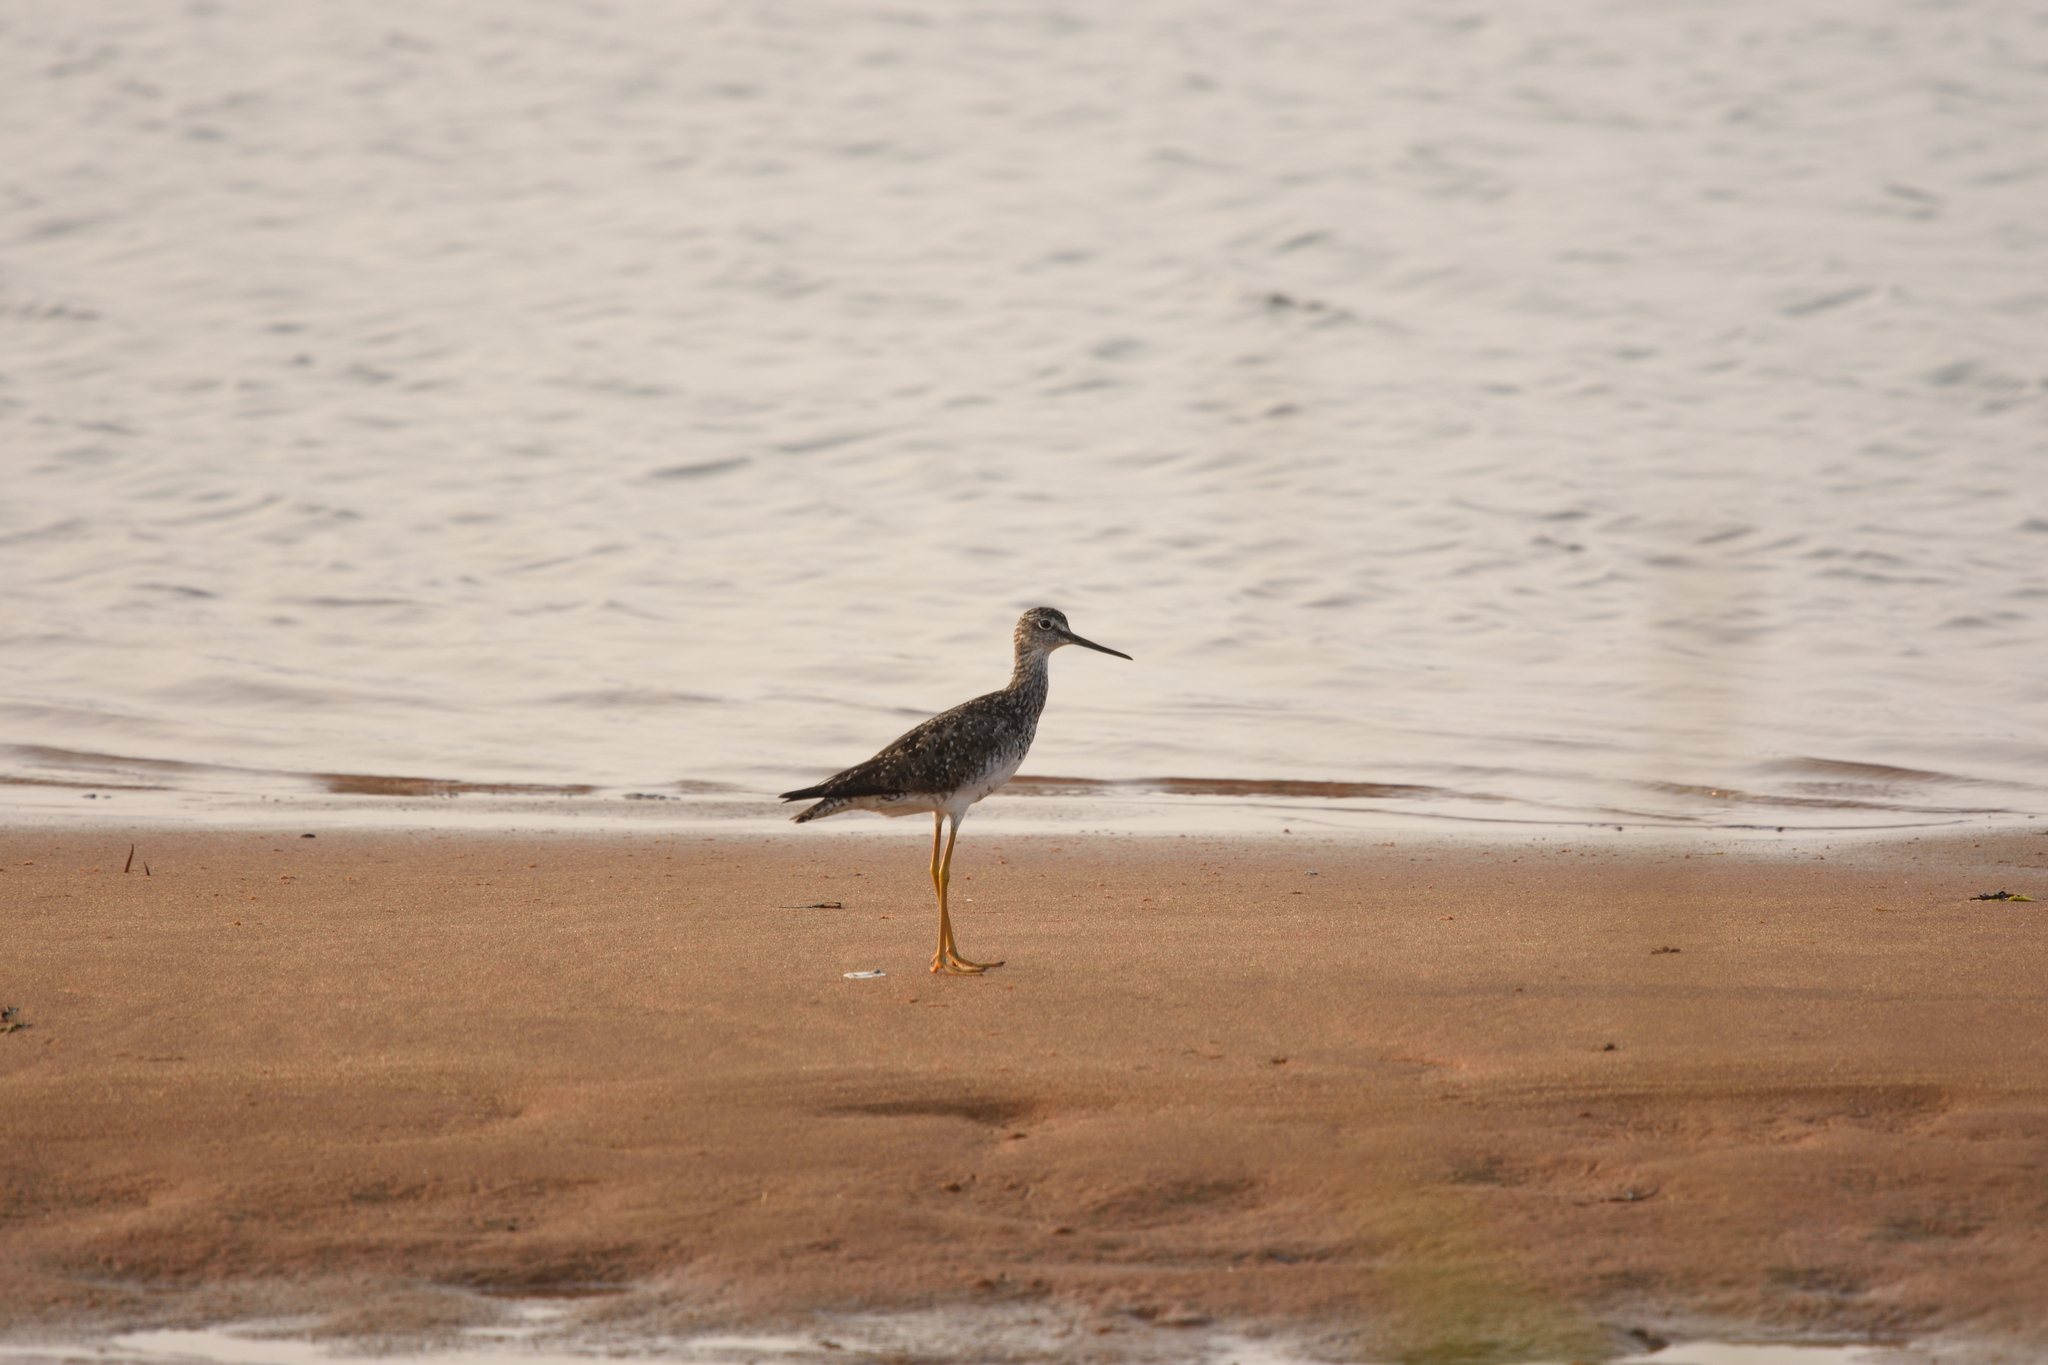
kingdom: Animalia
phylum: Chordata
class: Aves
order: Charadriiformes
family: Scolopacidae
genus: Tringa
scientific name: Tringa melanoleuca
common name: Greater yellowlegs
